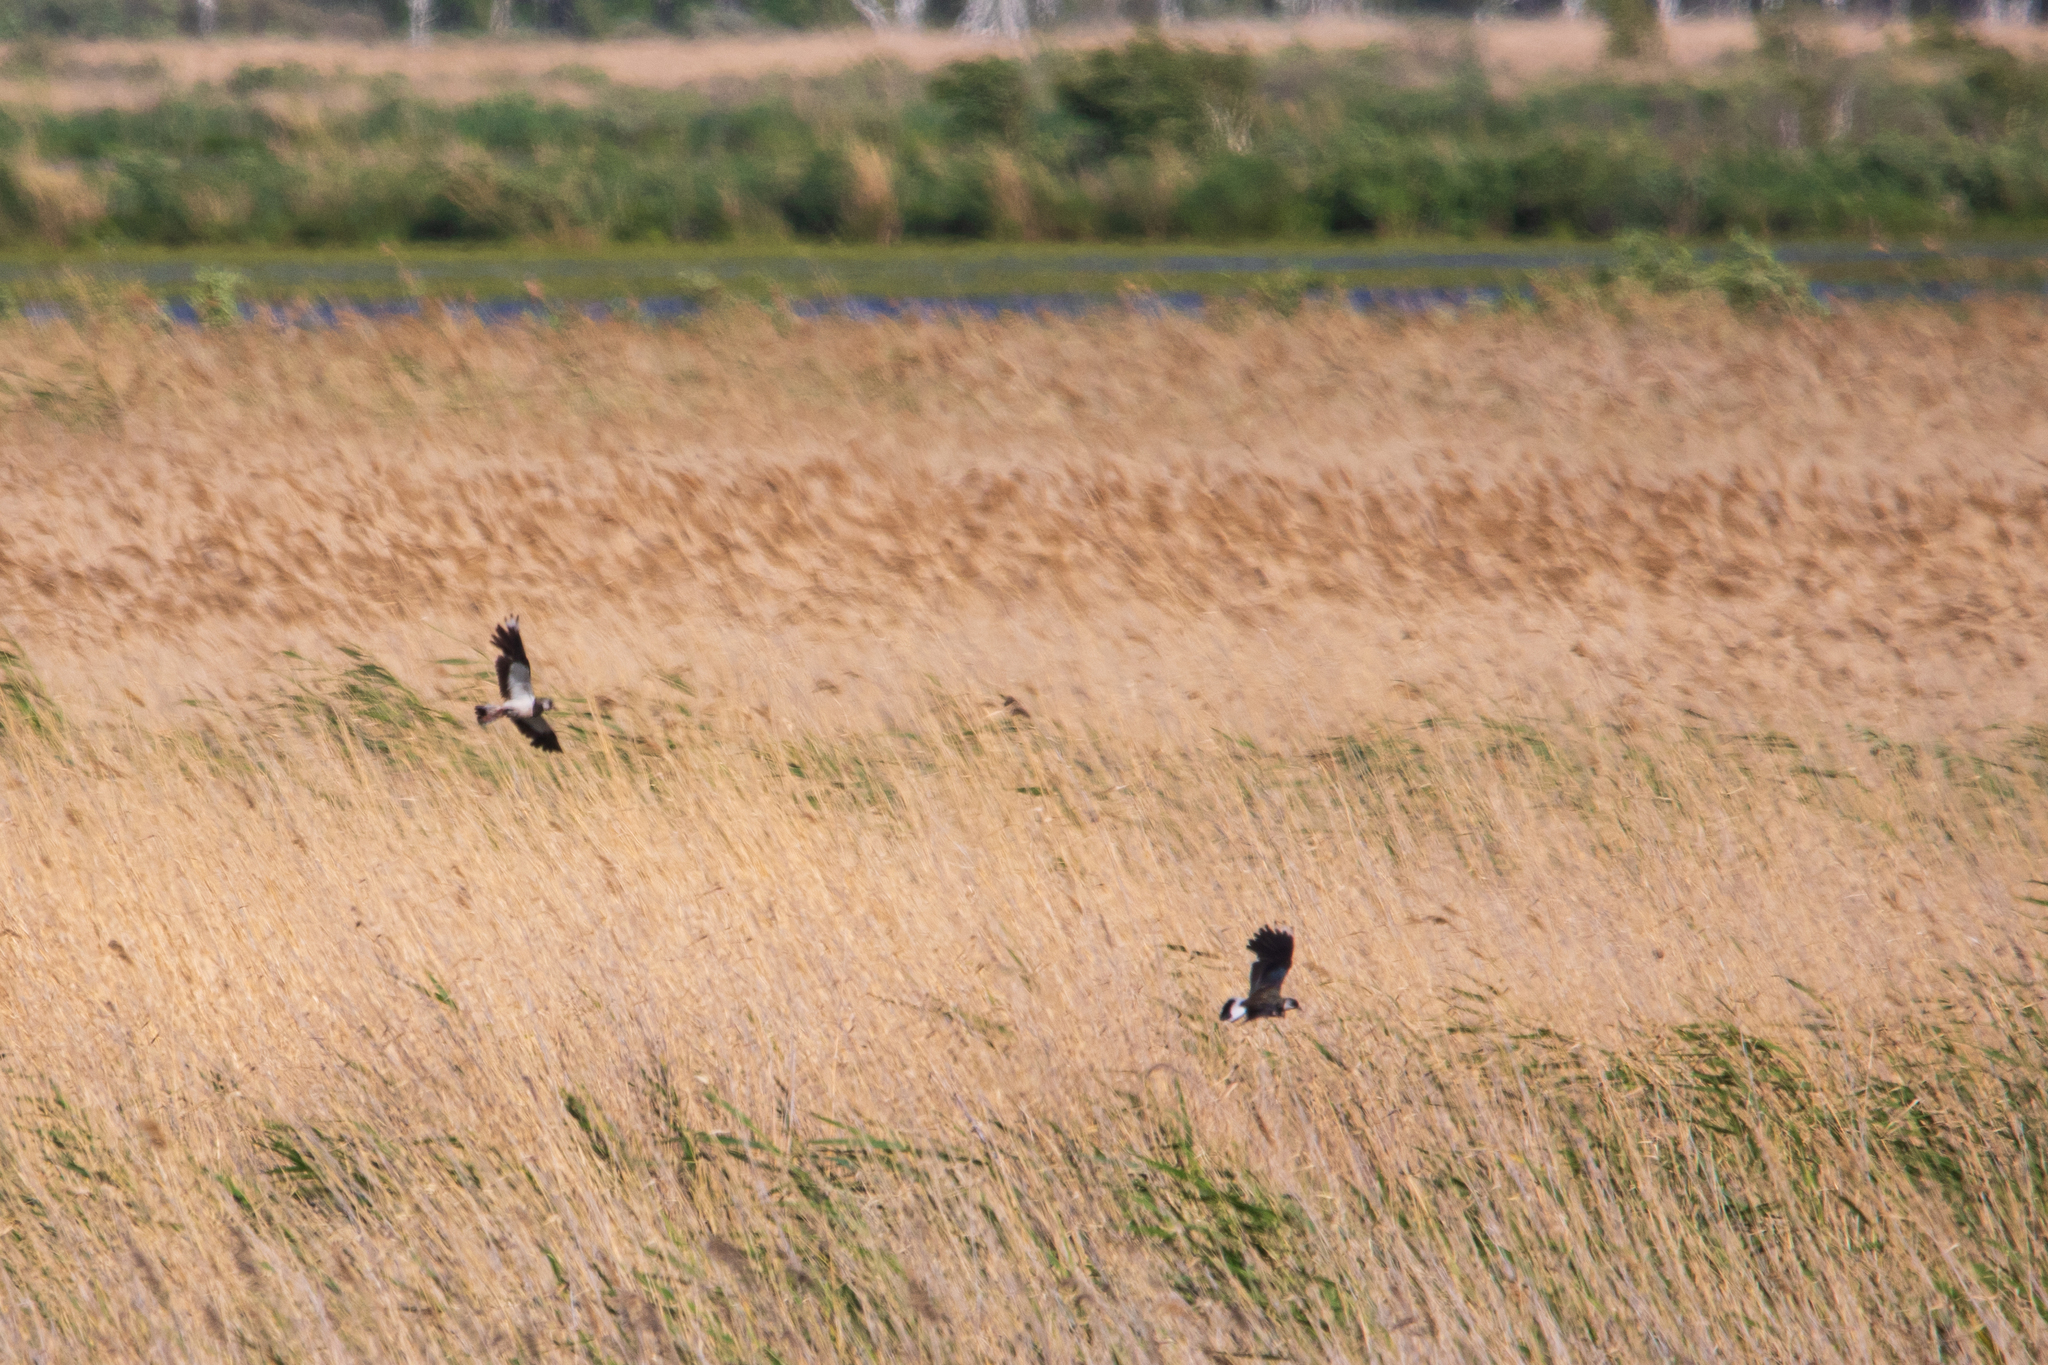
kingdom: Animalia
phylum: Chordata
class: Aves
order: Charadriiformes
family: Charadriidae
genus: Vanellus
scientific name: Vanellus vanellus
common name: Northern lapwing
